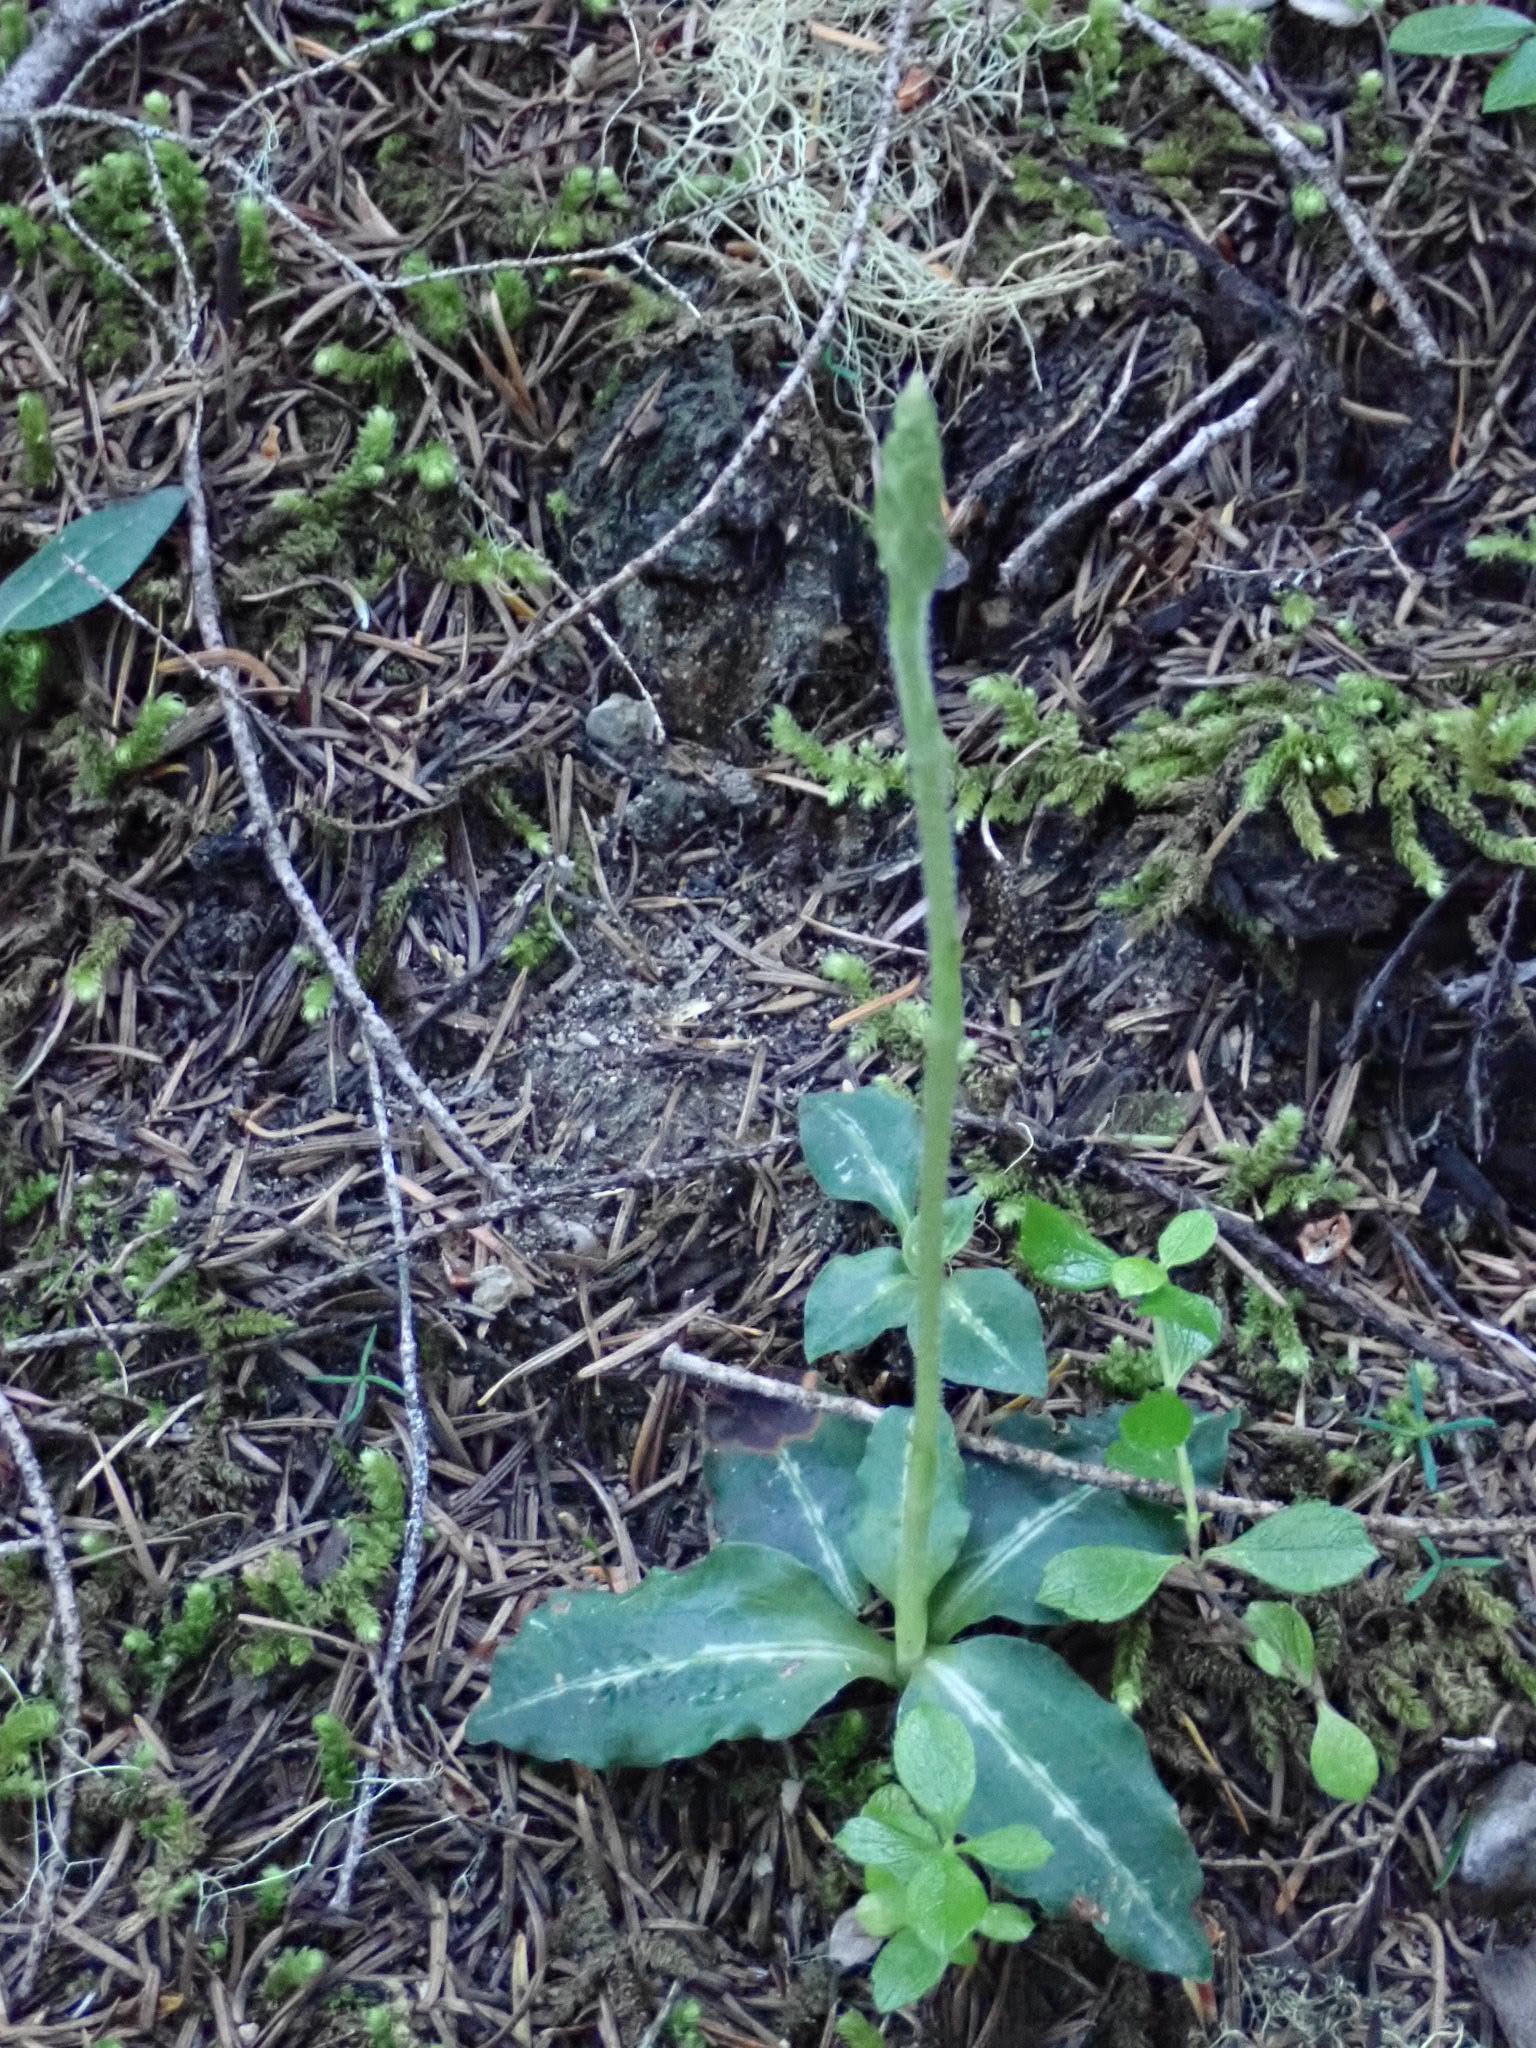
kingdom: Plantae
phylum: Tracheophyta
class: Liliopsida
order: Asparagales
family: Orchidaceae
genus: Goodyera
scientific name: Goodyera oblongifolia
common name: Giant rattlesnake-plantain
